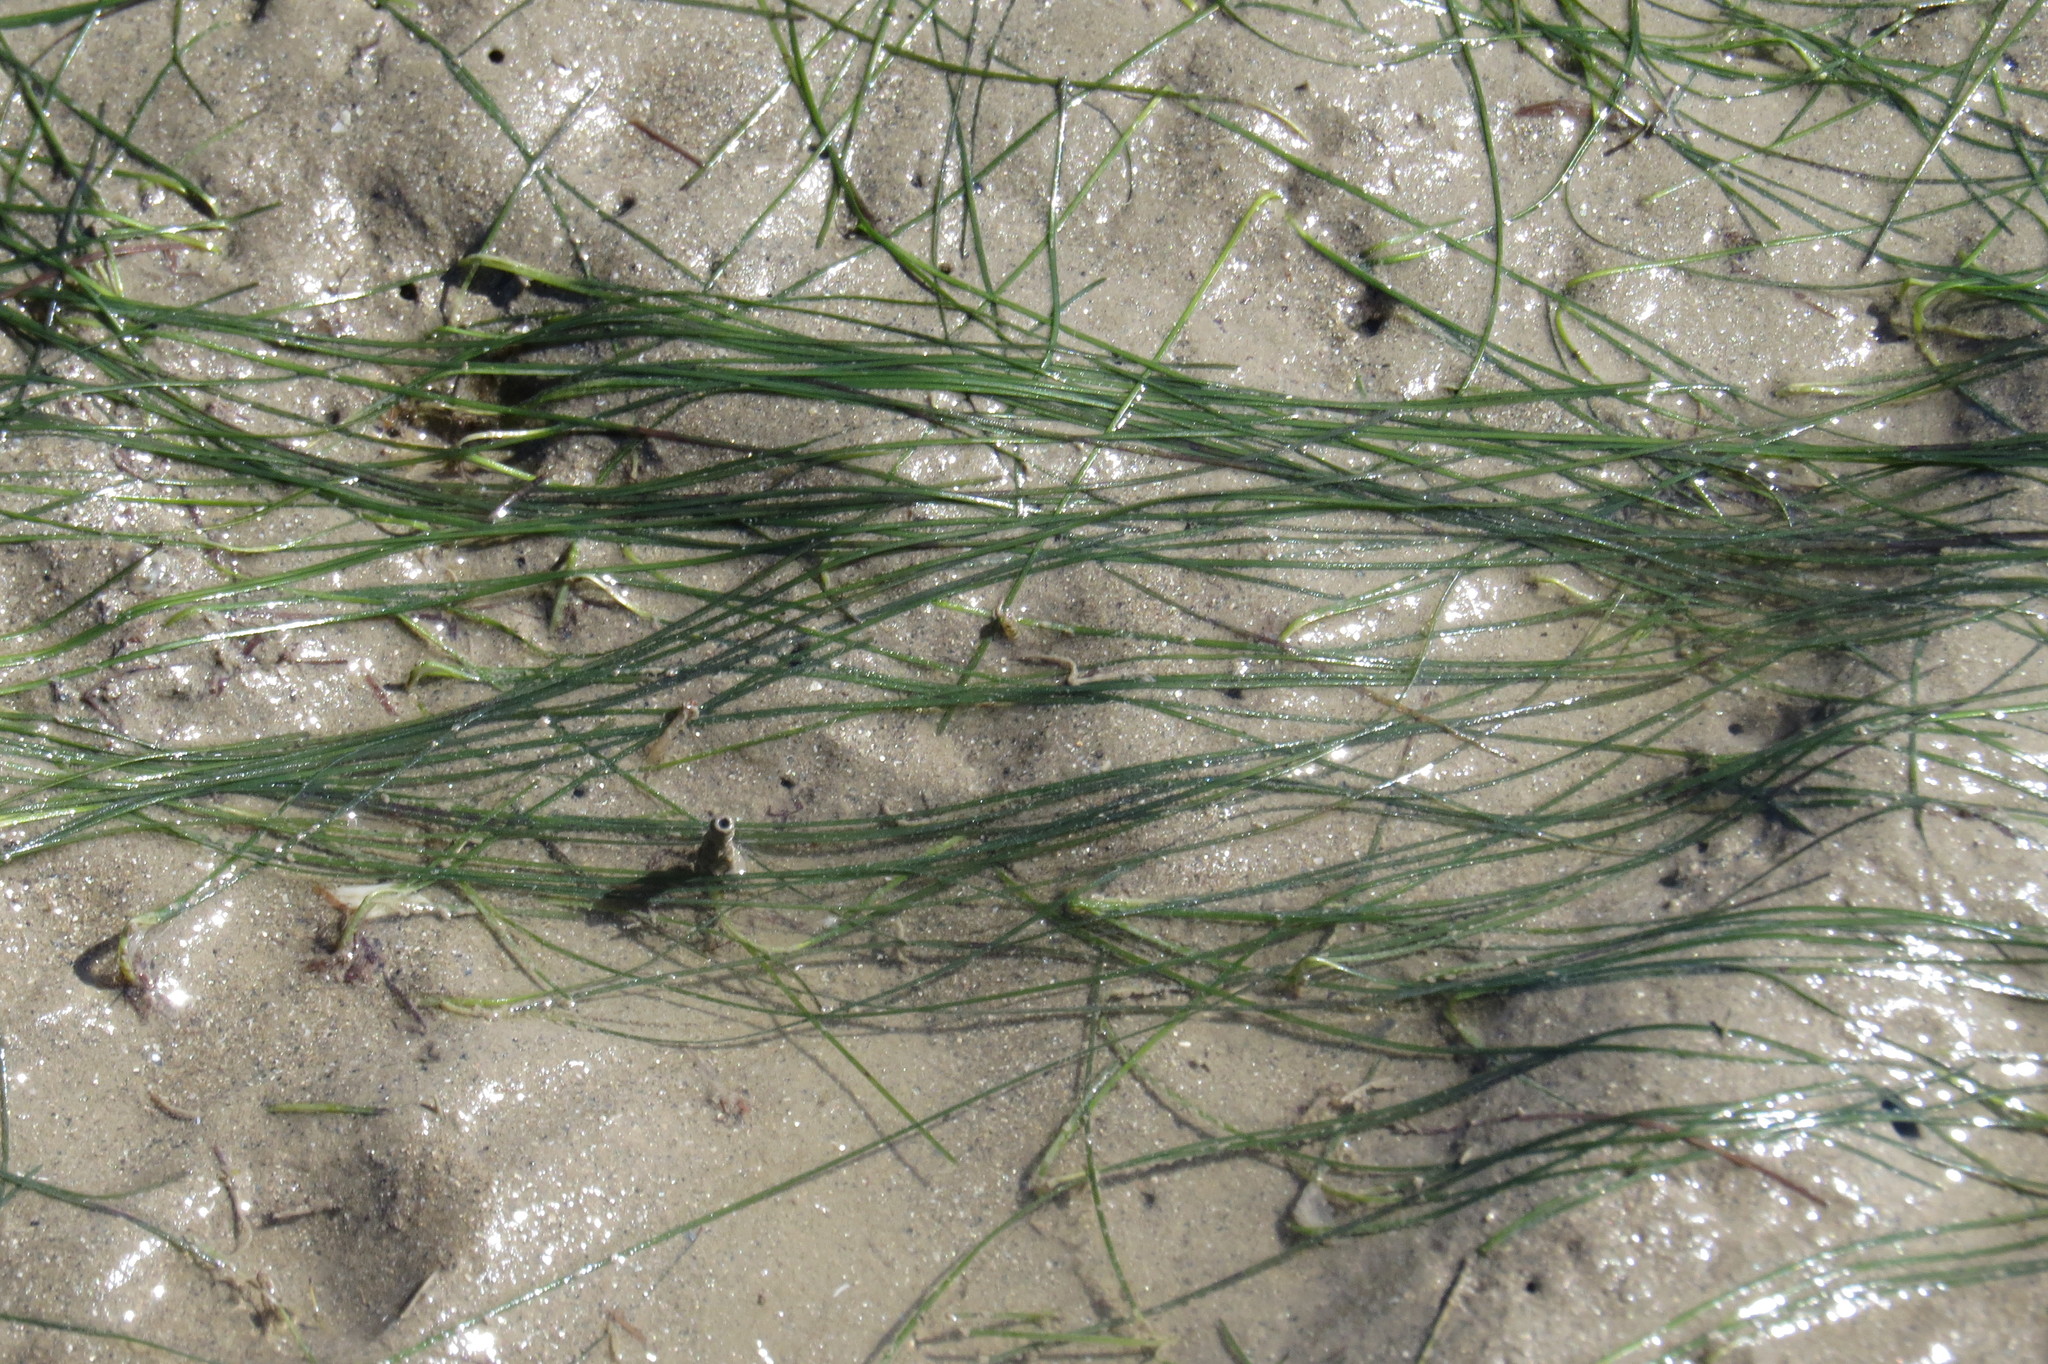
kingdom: Plantae
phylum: Tracheophyta
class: Liliopsida
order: Alismatales
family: Cymodoceaceae
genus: Halodule
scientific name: Halodule pinifolia
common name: Species code: hp
